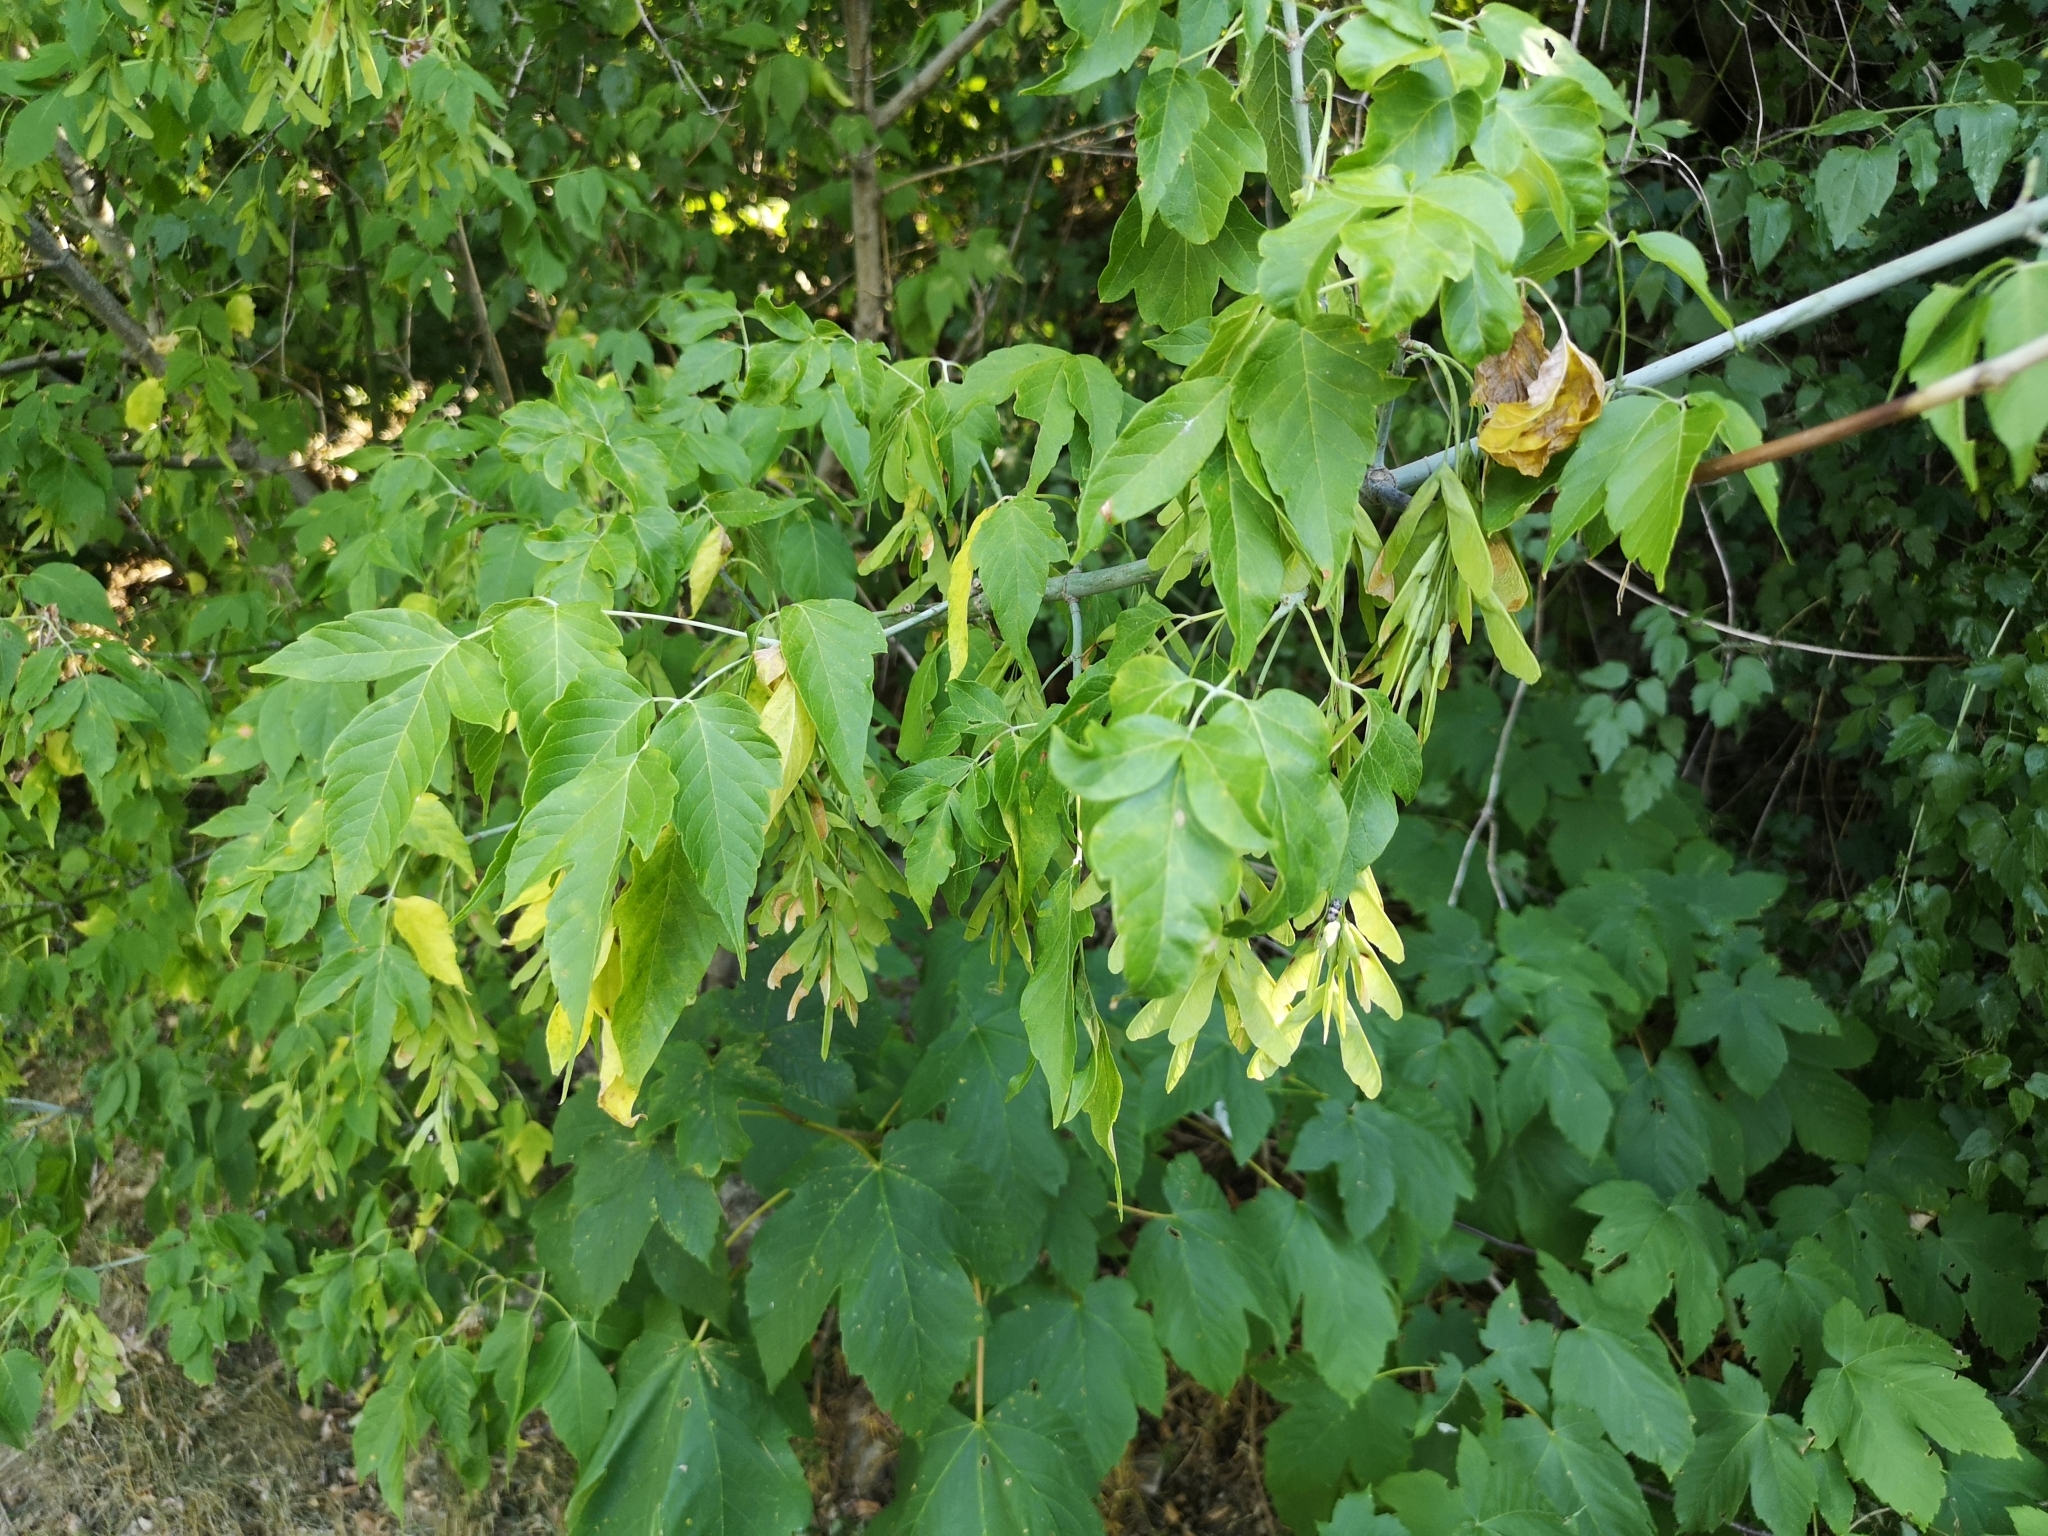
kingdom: Plantae
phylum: Tracheophyta
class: Magnoliopsida
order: Sapindales
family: Sapindaceae
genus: Acer
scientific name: Acer negundo
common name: Ashleaf maple
